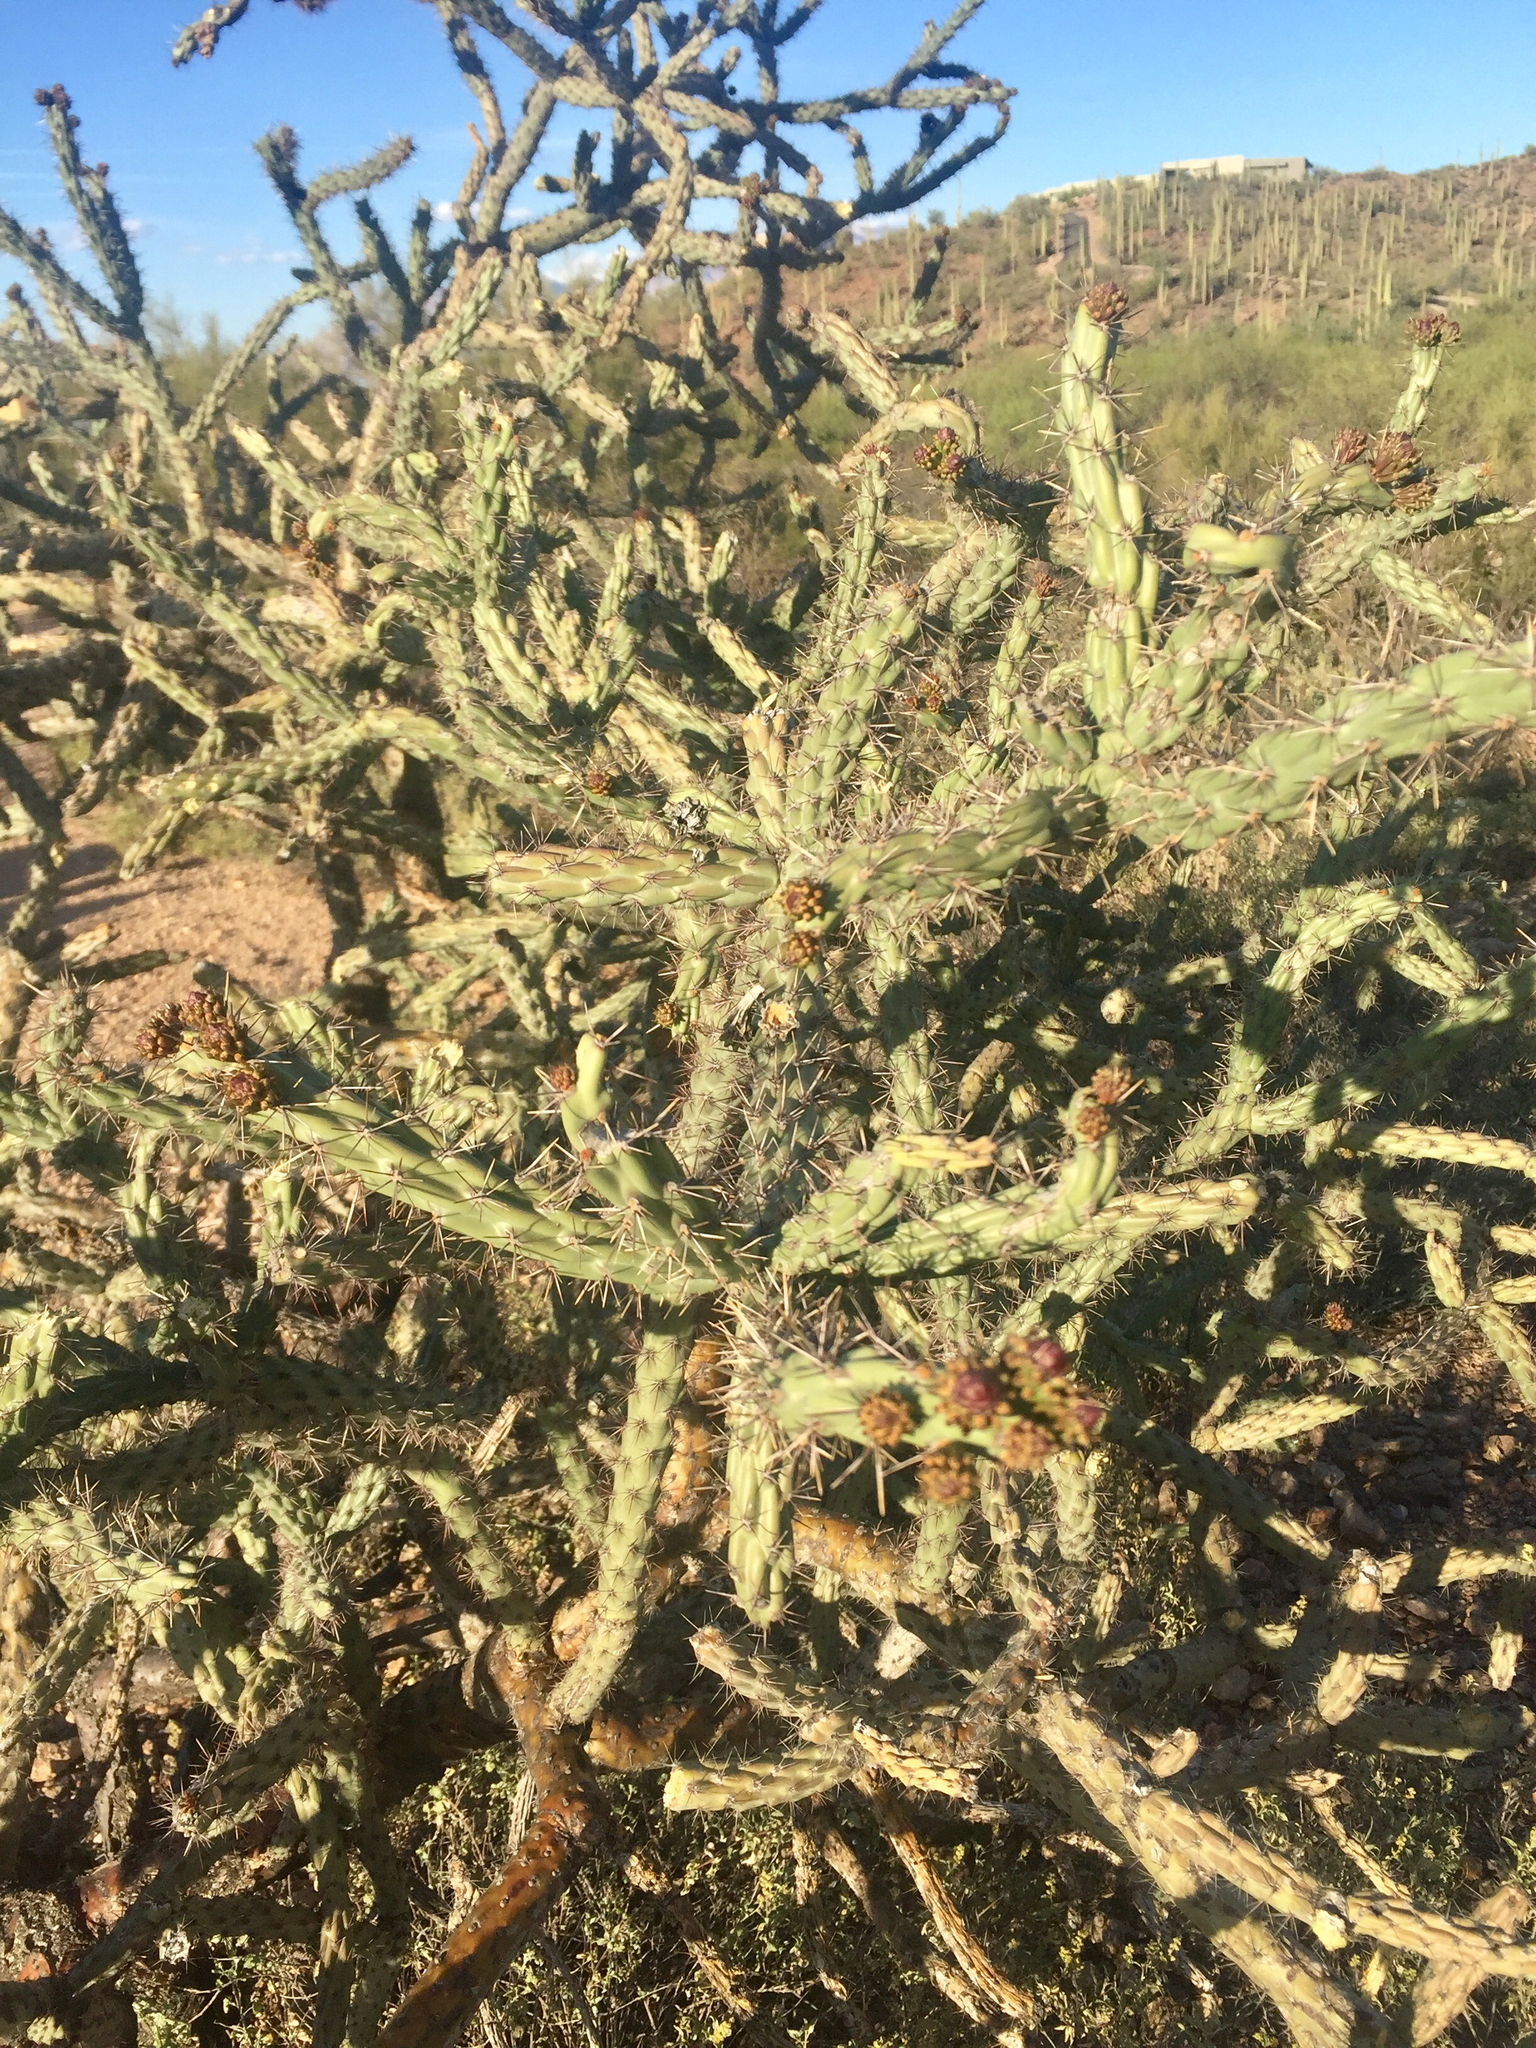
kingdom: Plantae
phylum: Tracheophyta
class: Magnoliopsida
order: Caryophyllales
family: Cactaceae
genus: Cylindropuntia
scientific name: Cylindropuntia acanthocarpa
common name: Buckhorn cholla
